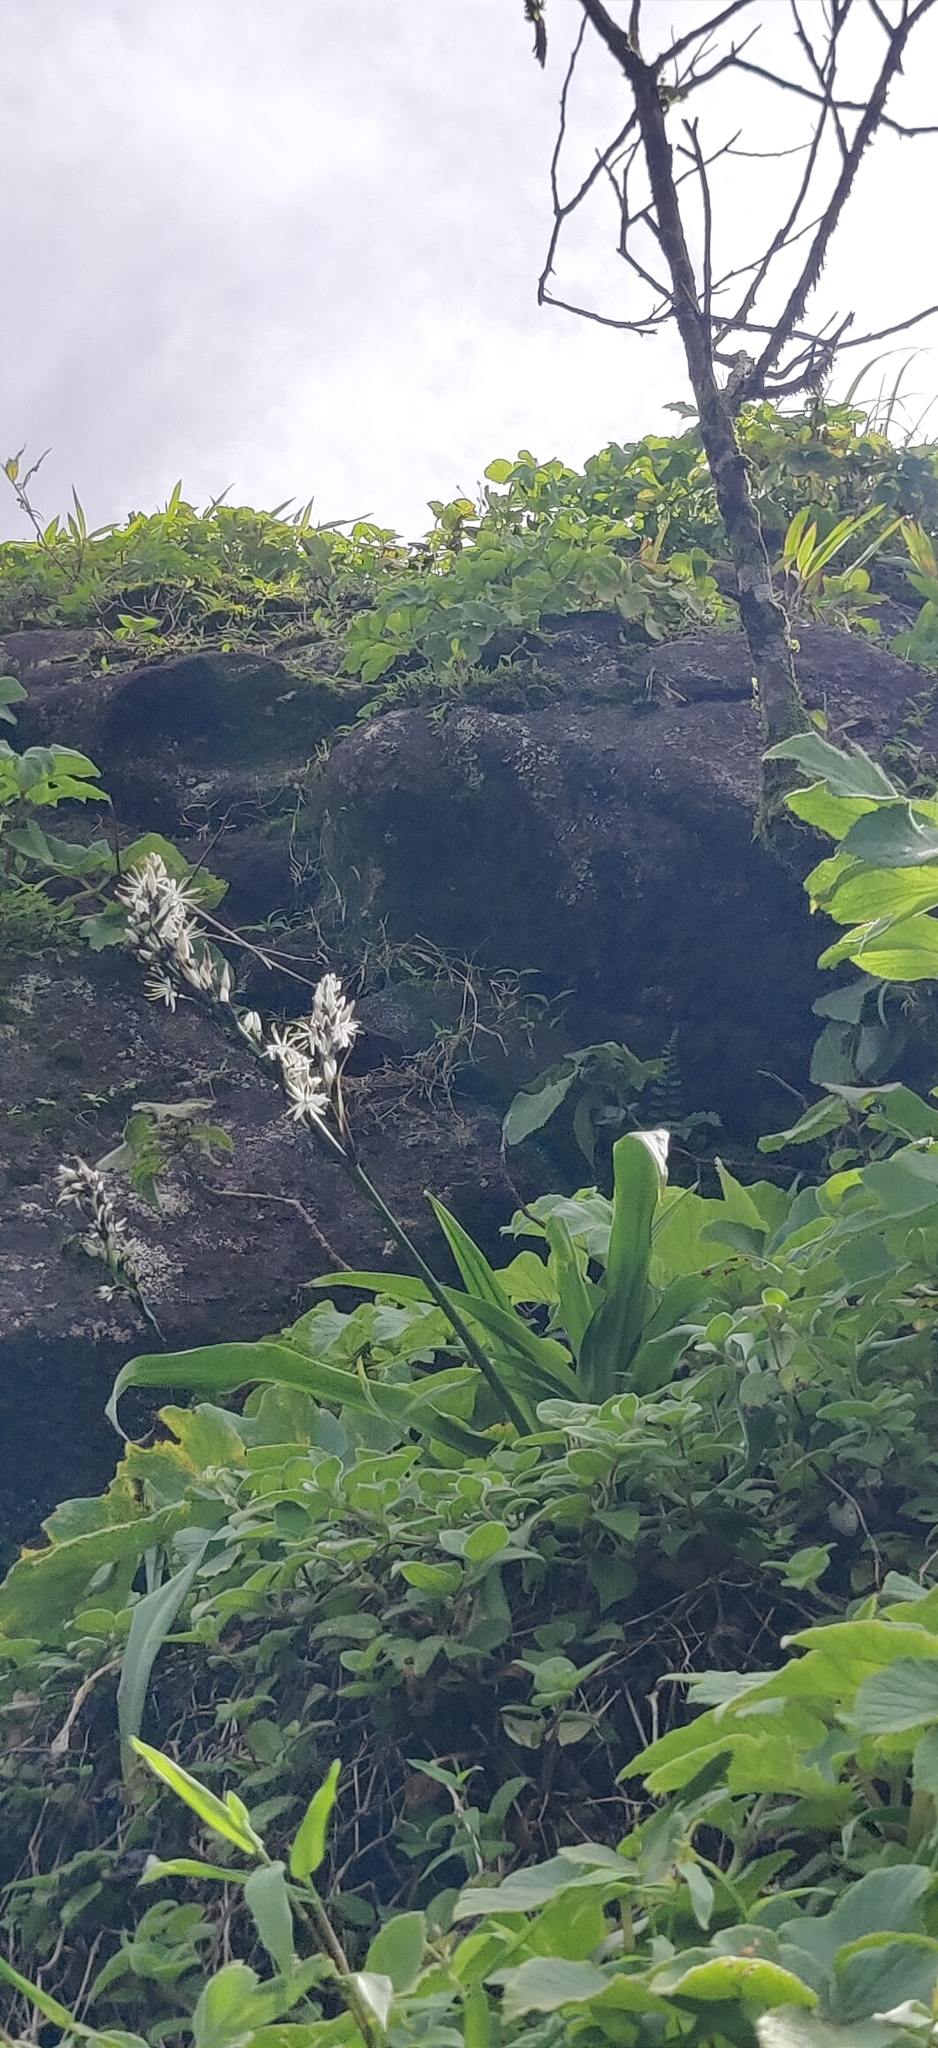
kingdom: Plantae
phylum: Tracheophyta
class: Liliopsida
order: Asparagales
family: Asparagaceae
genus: Chlorophytum
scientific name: Chlorophytum malabaricum
